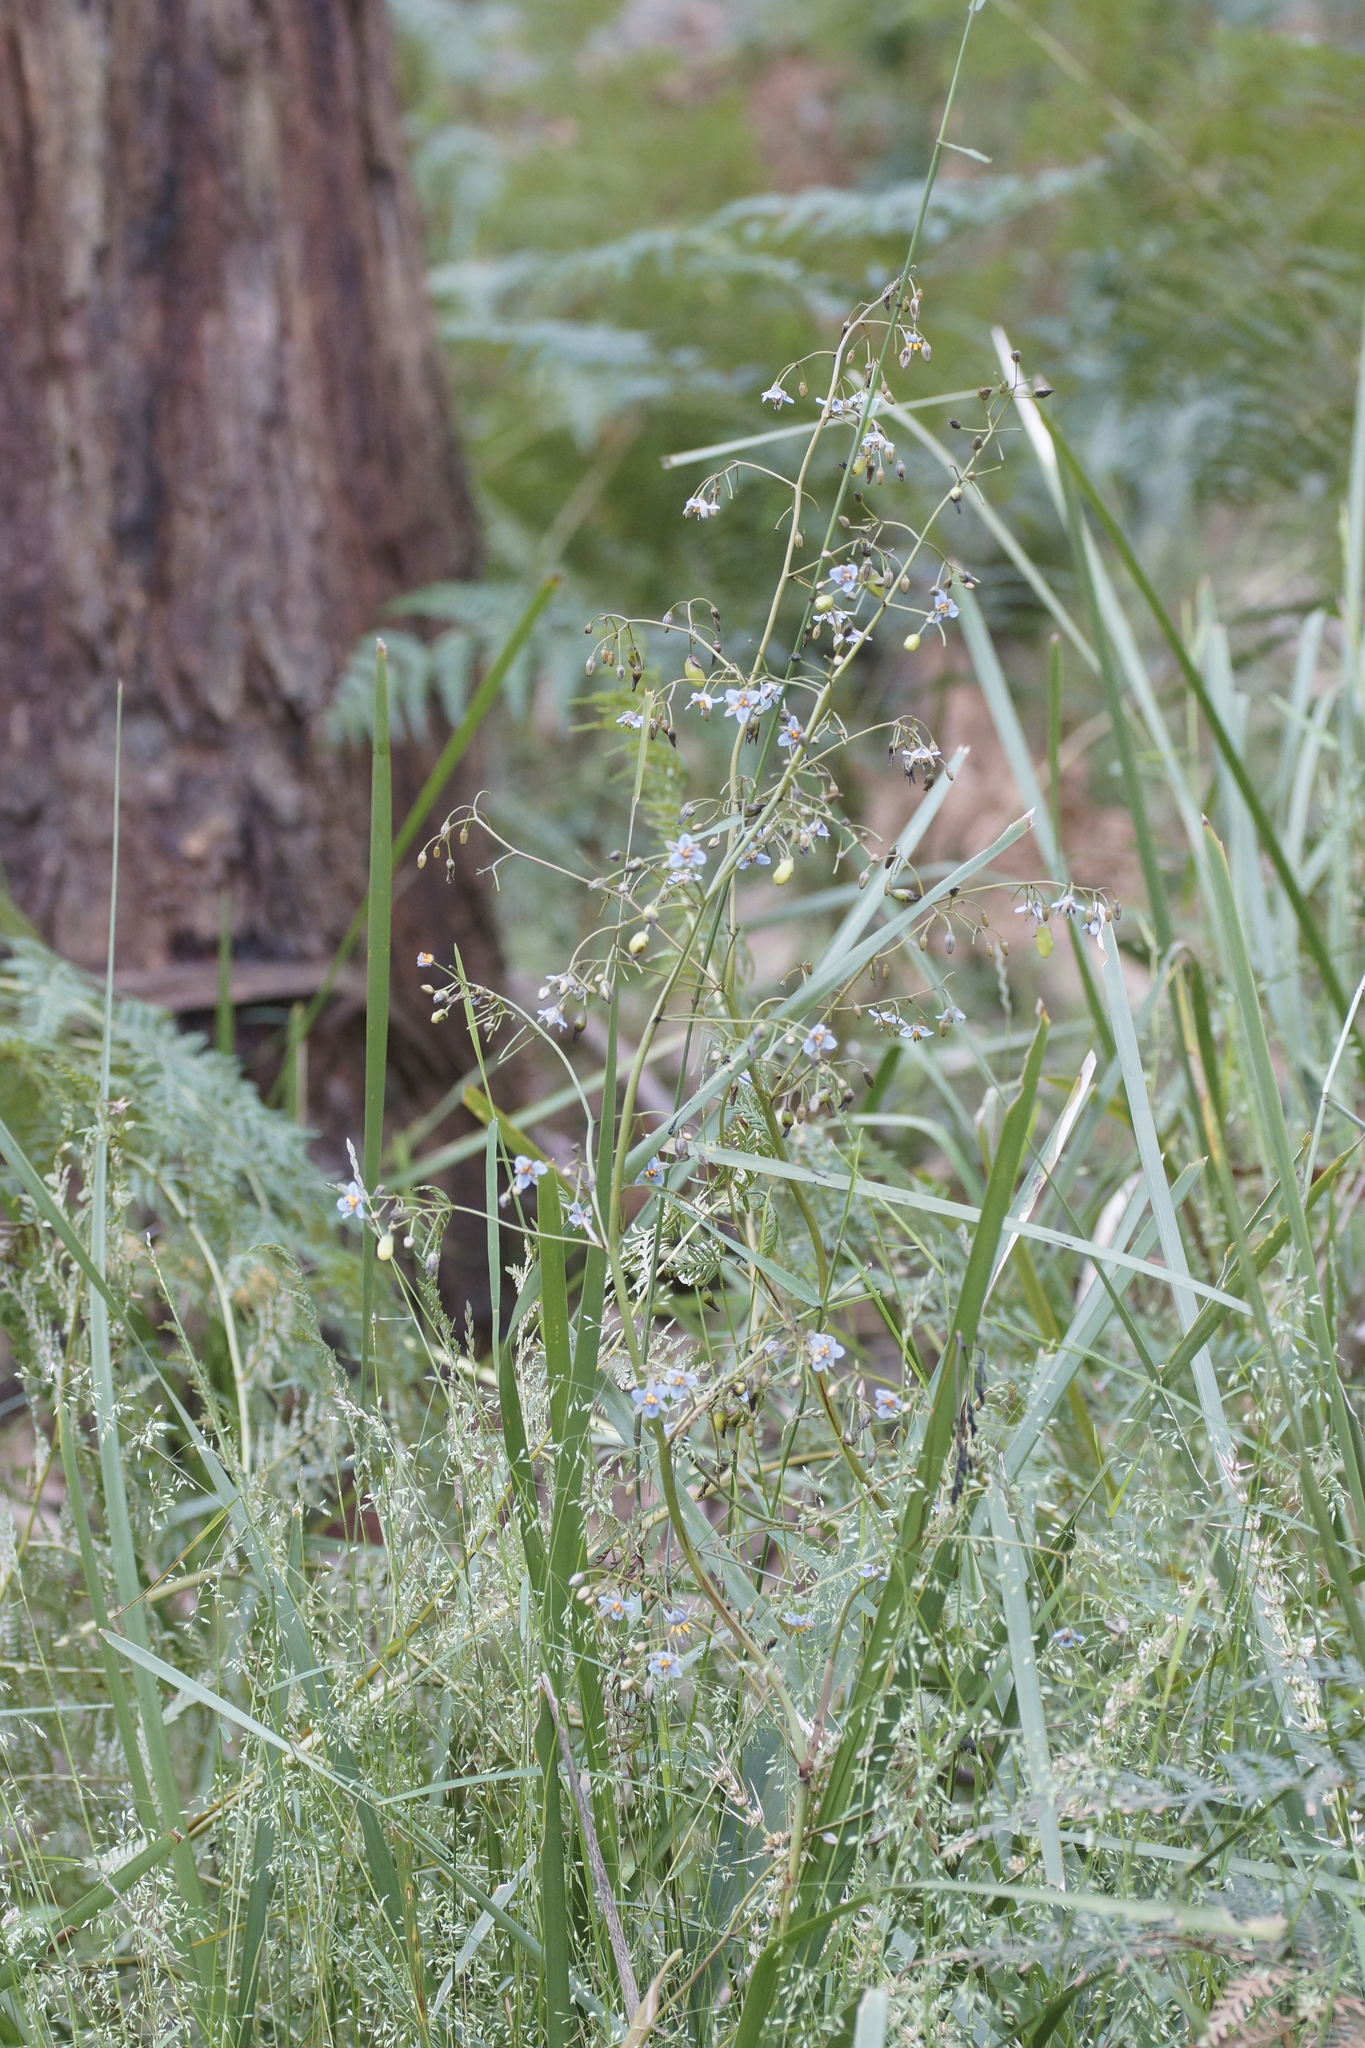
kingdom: Plantae
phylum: Tracheophyta
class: Liliopsida
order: Asparagales
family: Asphodelaceae
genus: Dianella
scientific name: Dianella revoluta
